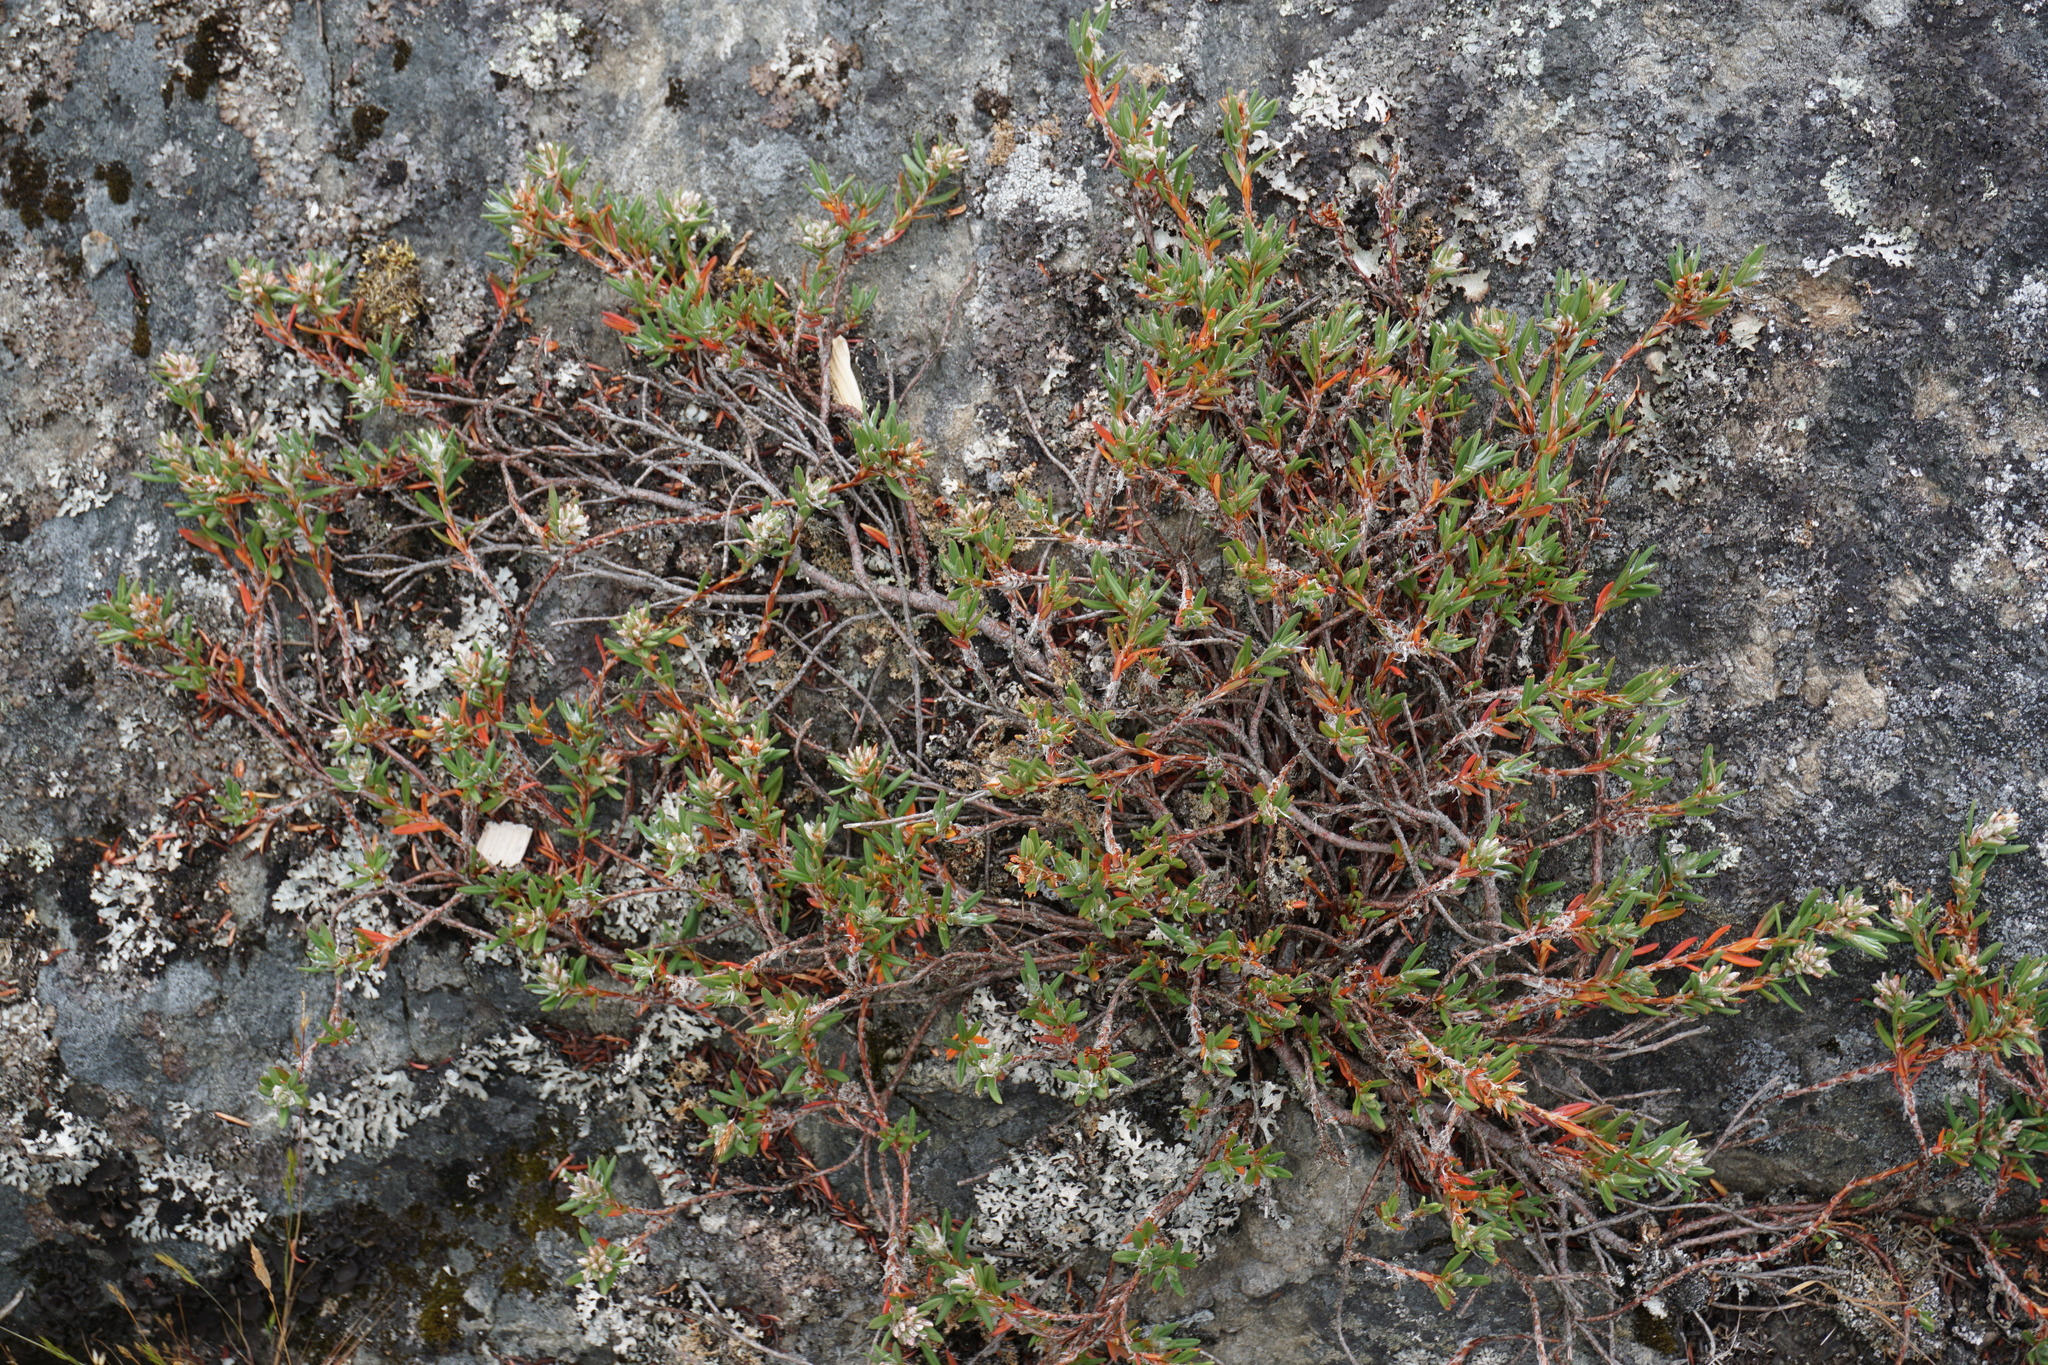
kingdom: Plantae
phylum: Tracheophyta
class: Magnoliopsida
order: Caryophyllales
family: Polygonaceae
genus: Polygonum
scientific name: Polygonum paronychia
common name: Dune knotweed
